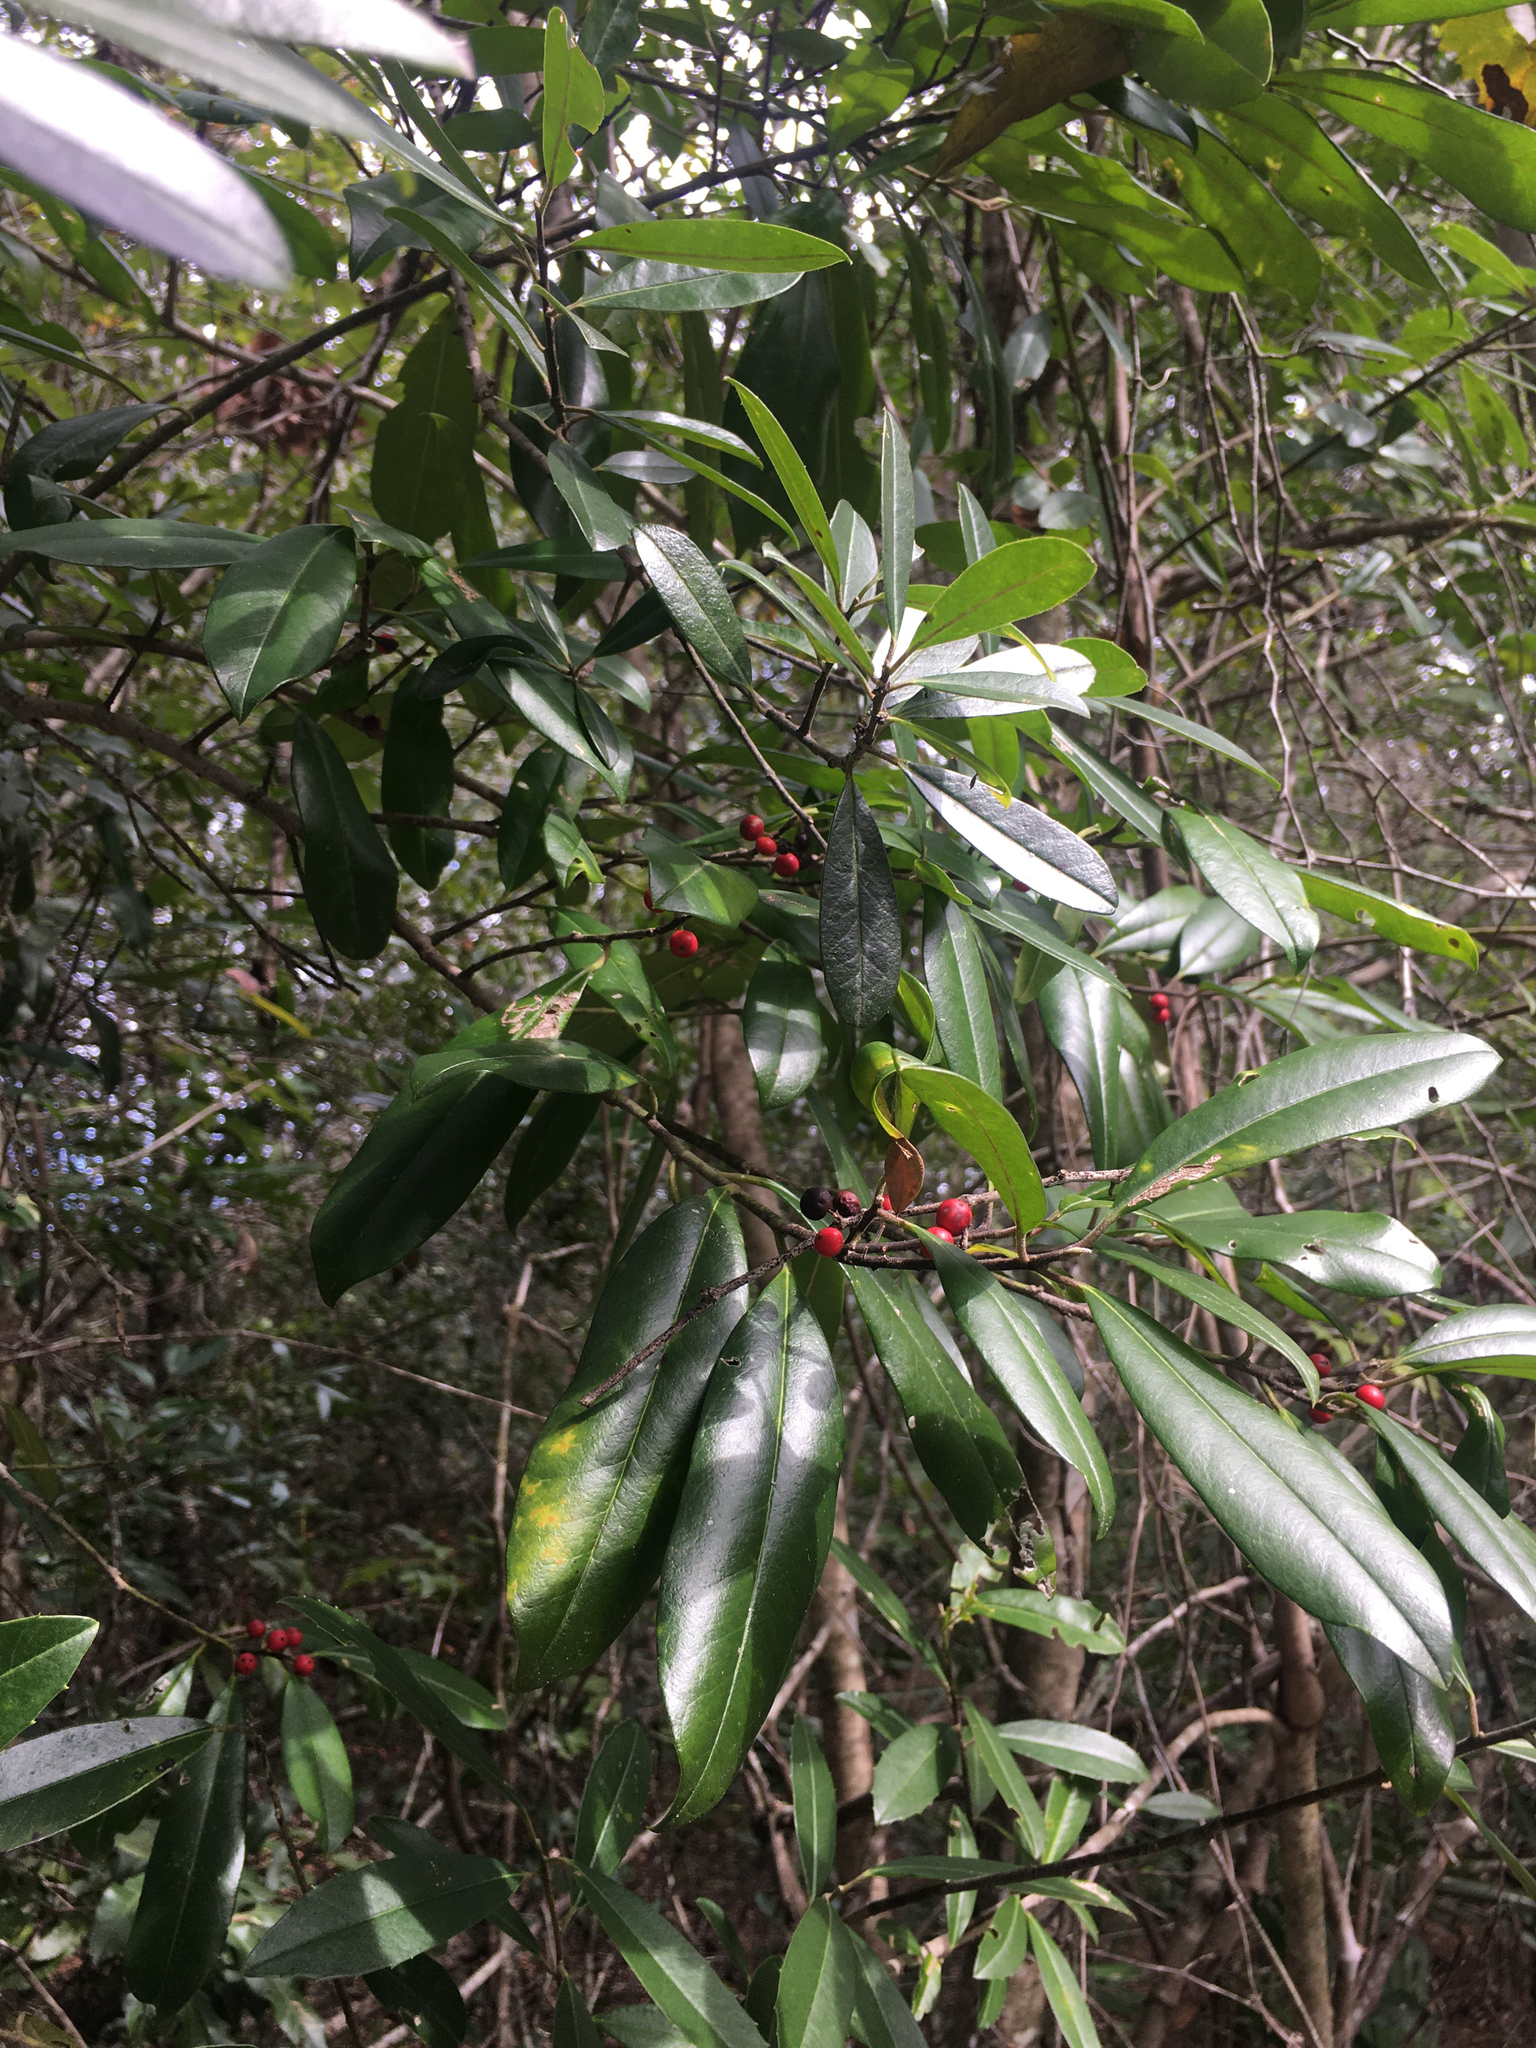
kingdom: Plantae
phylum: Tracheophyta
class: Magnoliopsida
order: Aquifoliales
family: Aquifoliaceae
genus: Ilex
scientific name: Ilex cassine
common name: Dahoon
